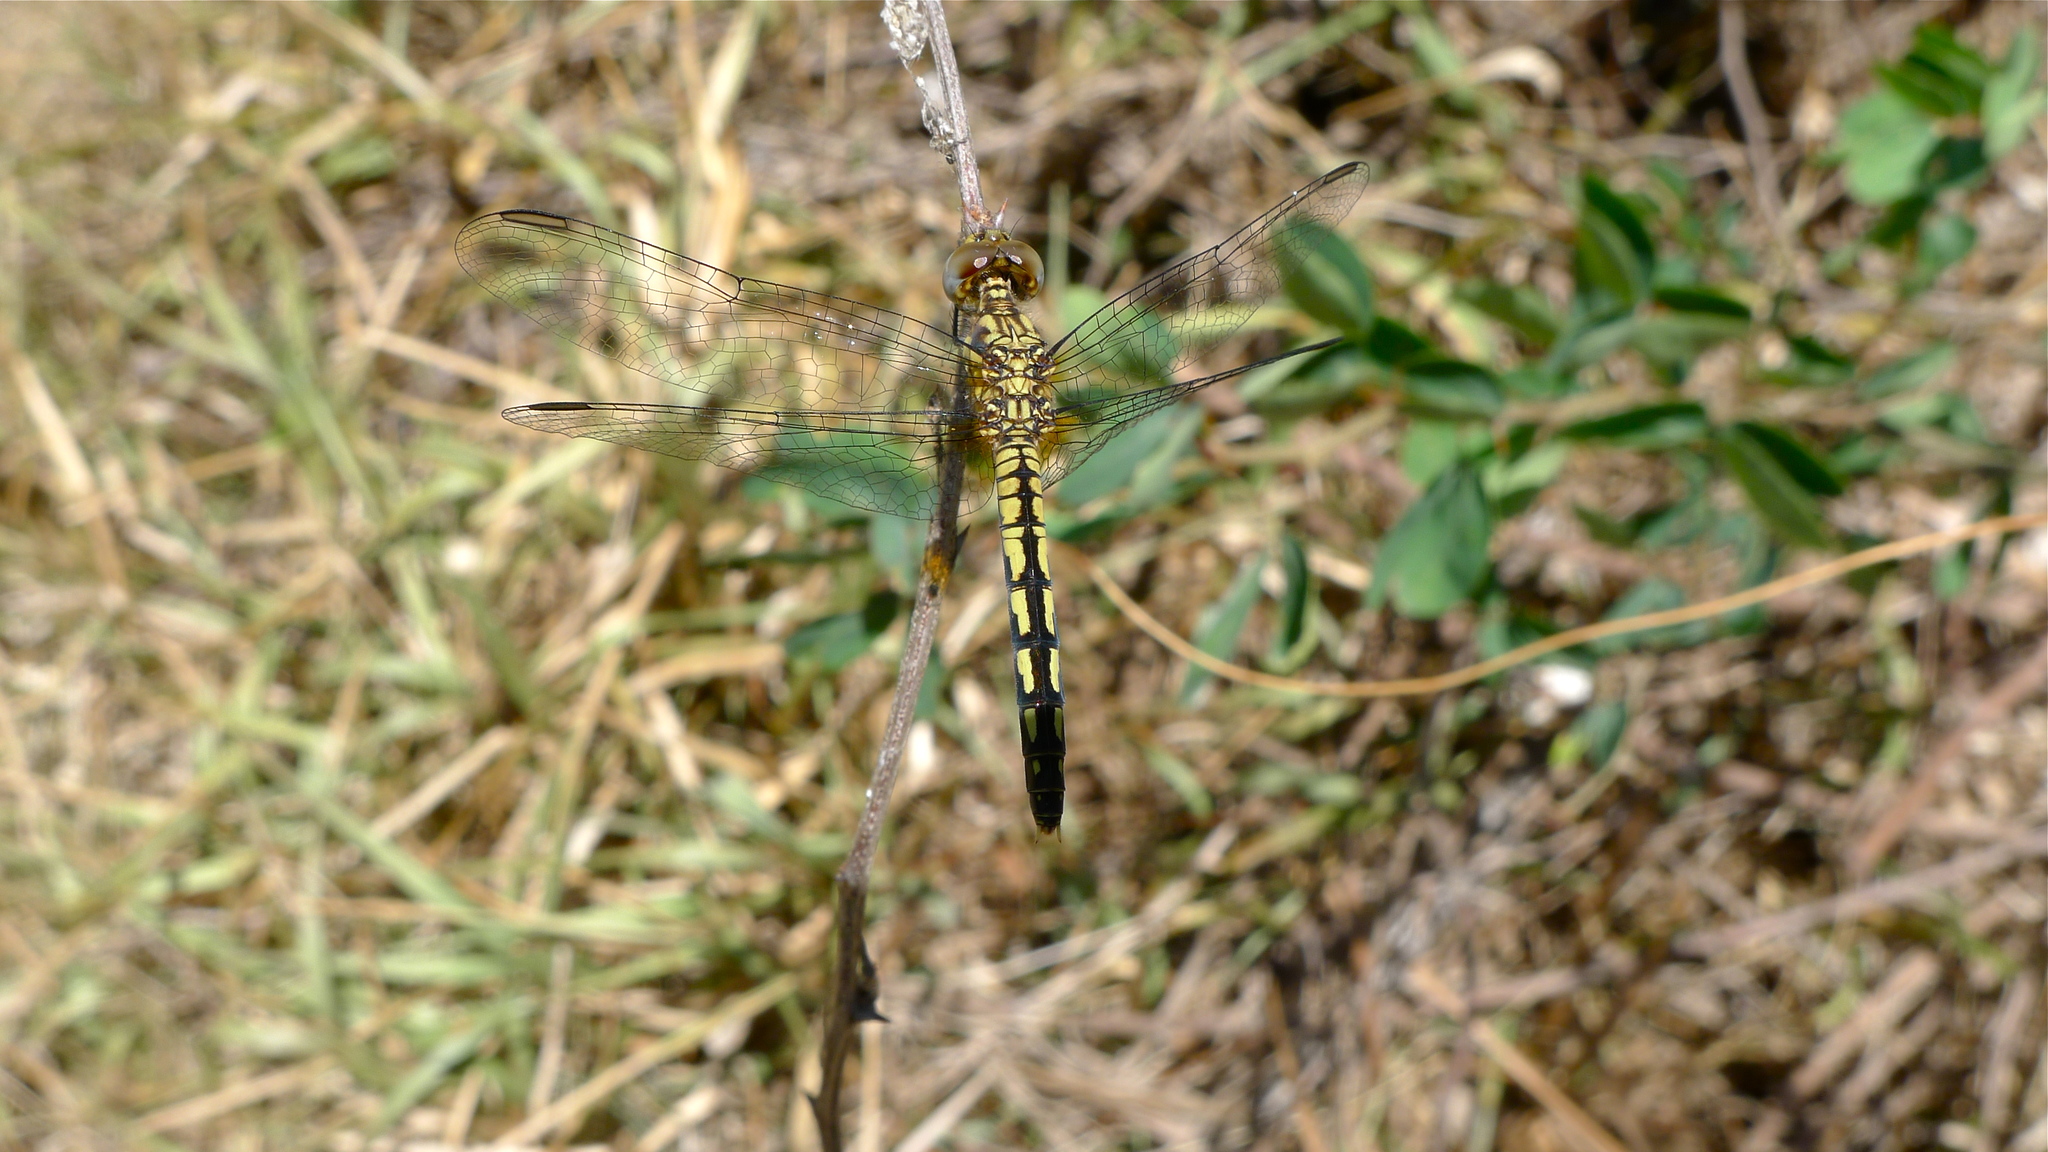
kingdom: Animalia
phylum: Arthropoda
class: Insecta
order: Odonata
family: Libellulidae
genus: Diplacodes
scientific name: Diplacodes lefebvrii
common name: Black percher
